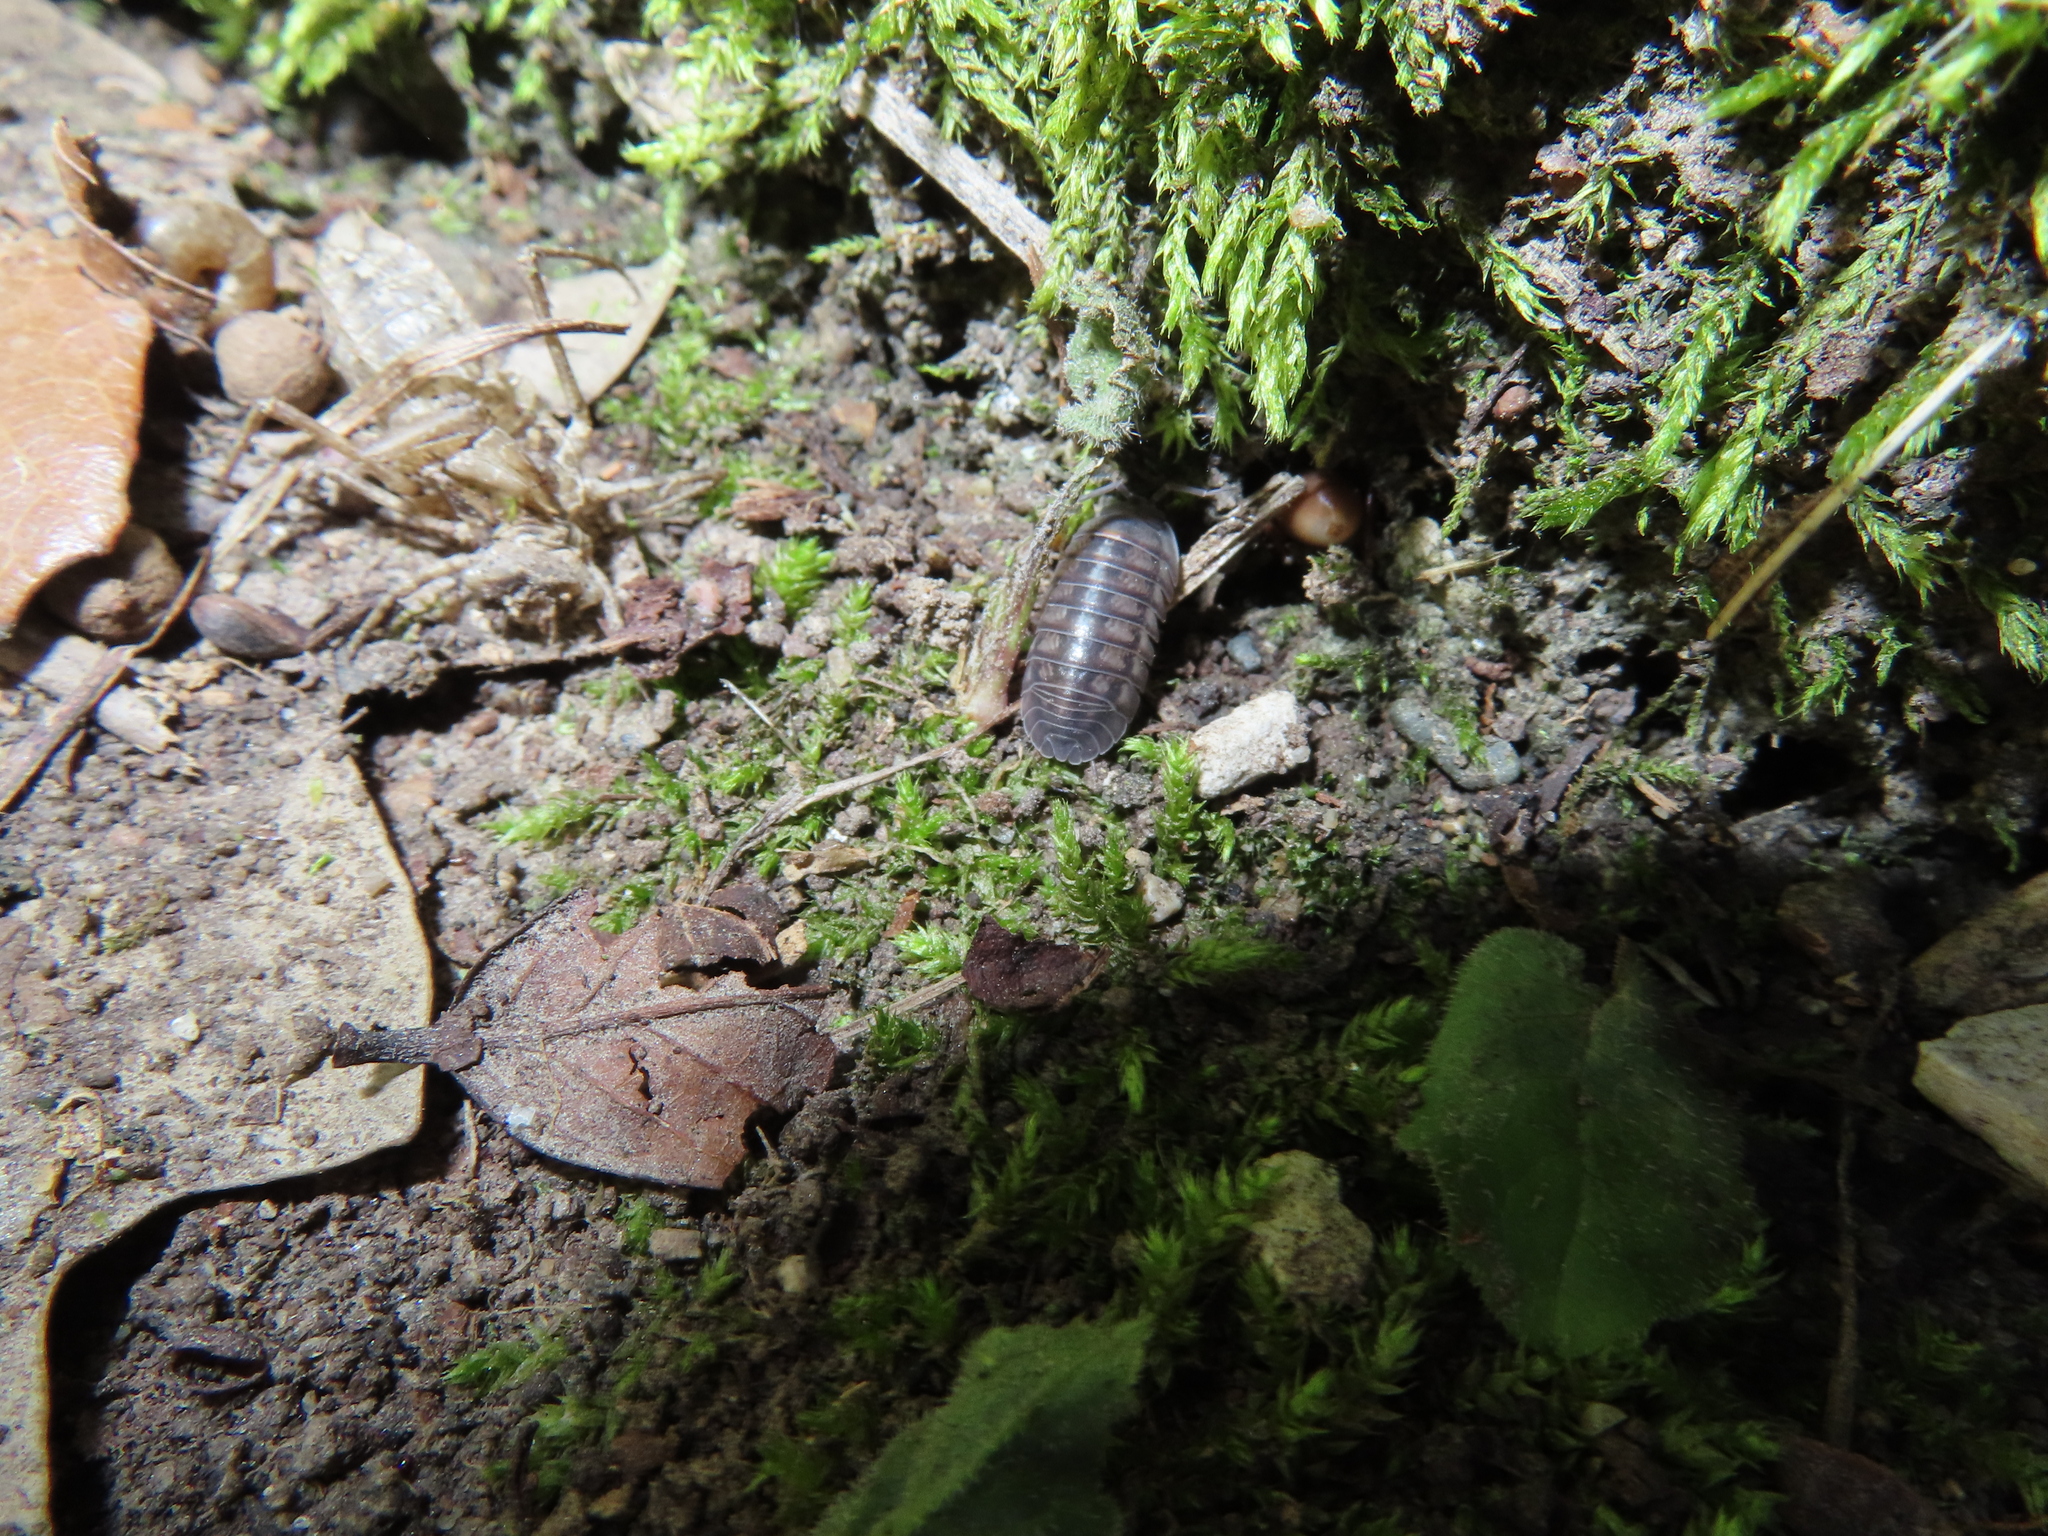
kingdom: Animalia
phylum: Arthropoda
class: Malacostraca
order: Isopoda
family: Armadillidiidae
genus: Armadillidium
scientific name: Armadillidium nasatum
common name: Isopod
